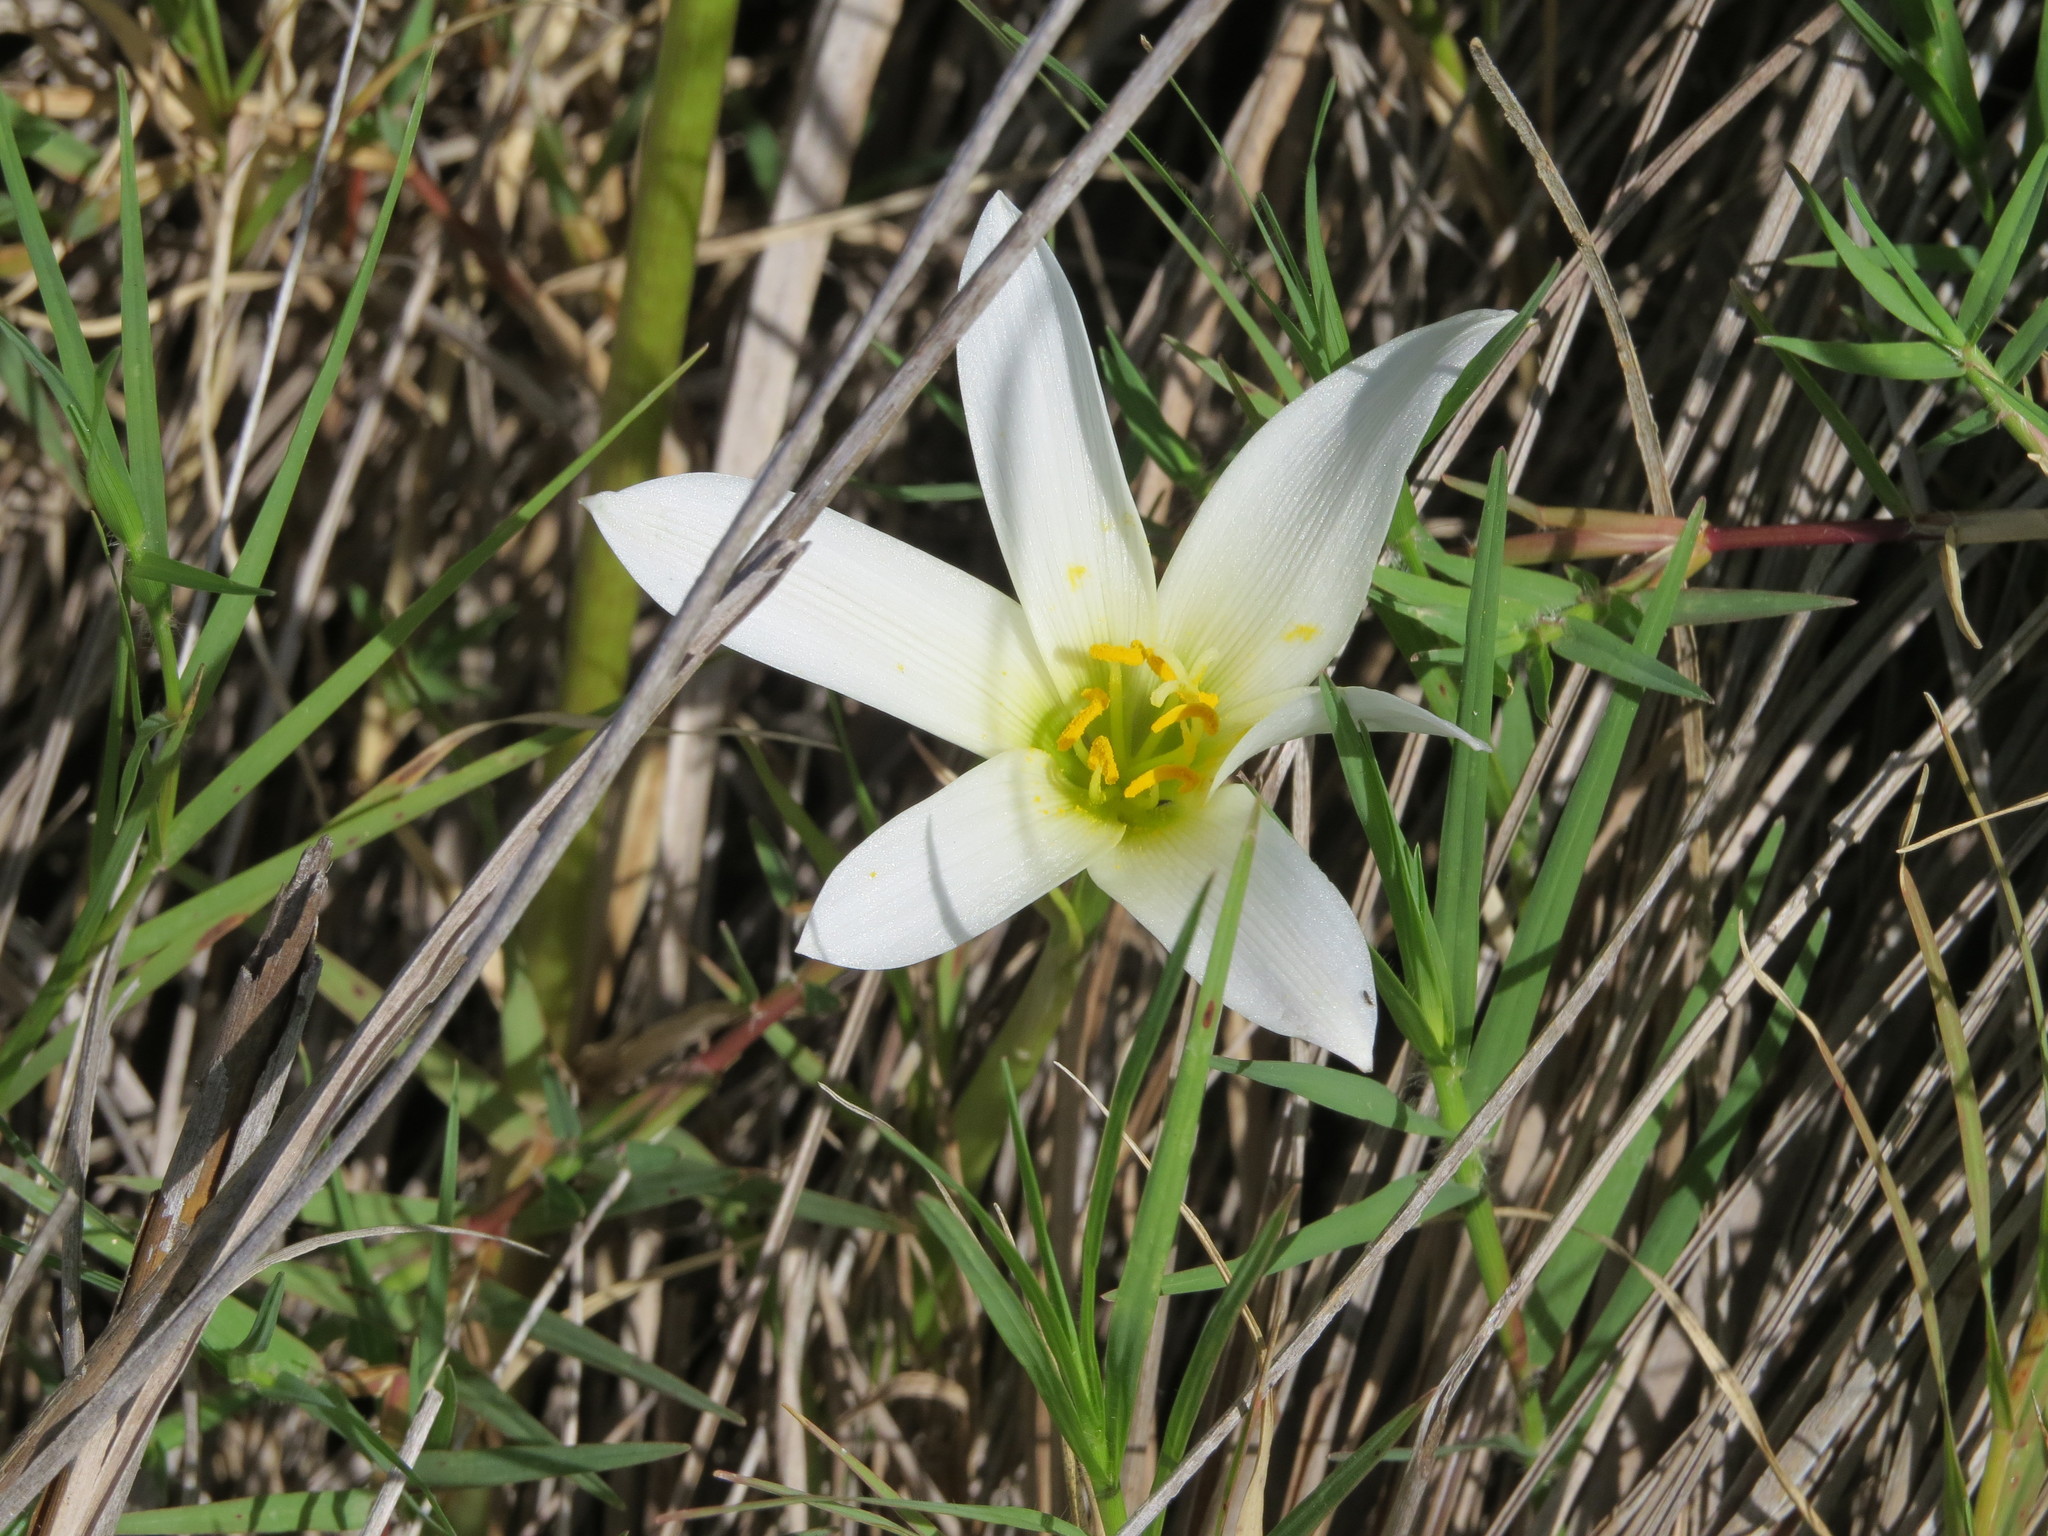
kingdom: Plantae
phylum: Tracheophyta
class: Liliopsida
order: Asparagales
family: Amaryllidaceae
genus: Zephyranthes
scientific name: Zephyranthes mesochloa
